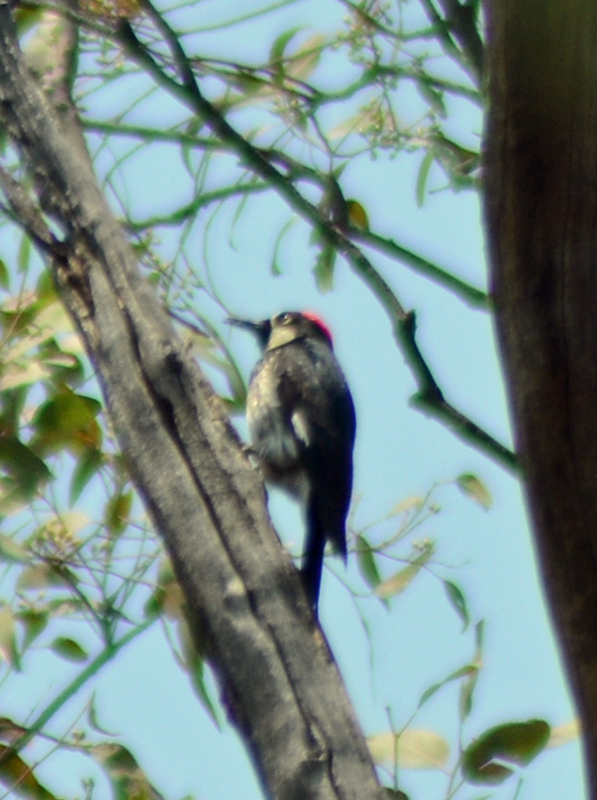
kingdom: Animalia
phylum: Chordata
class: Aves
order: Piciformes
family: Picidae
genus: Melanerpes
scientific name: Melanerpes formicivorus
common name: Acorn woodpecker
